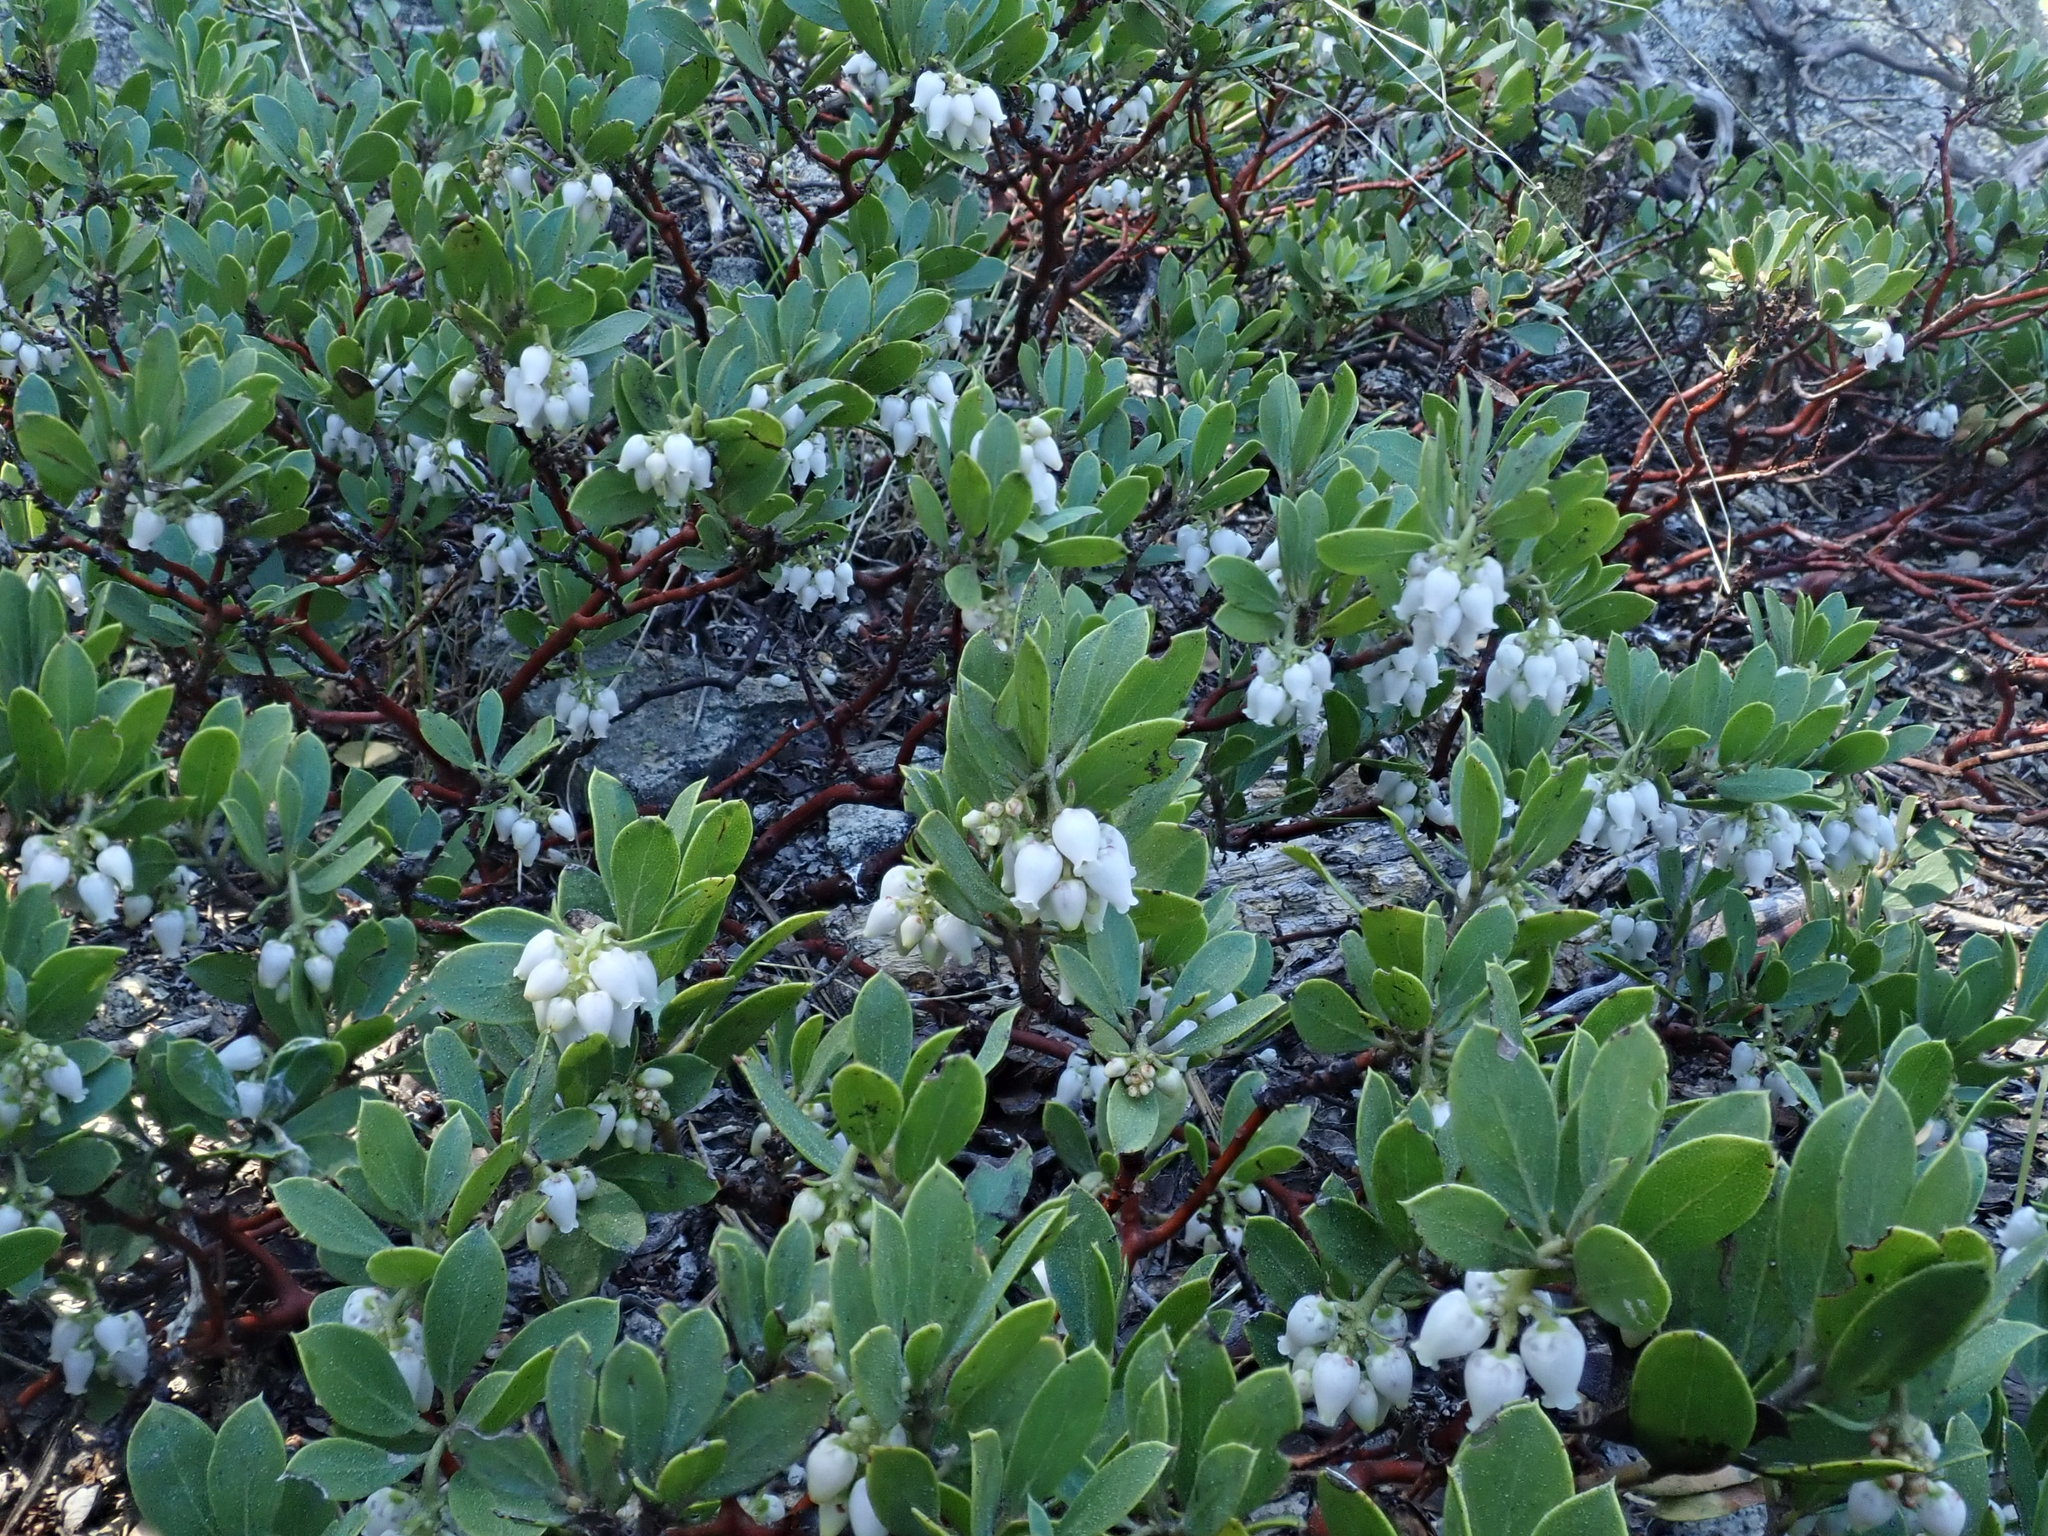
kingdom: Plantae
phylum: Tracheophyta
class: Magnoliopsida
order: Ericales
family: Ericaceae
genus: Arctostaphylos
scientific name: Arctostaphylos nevadensis
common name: Pinemat manzanita
